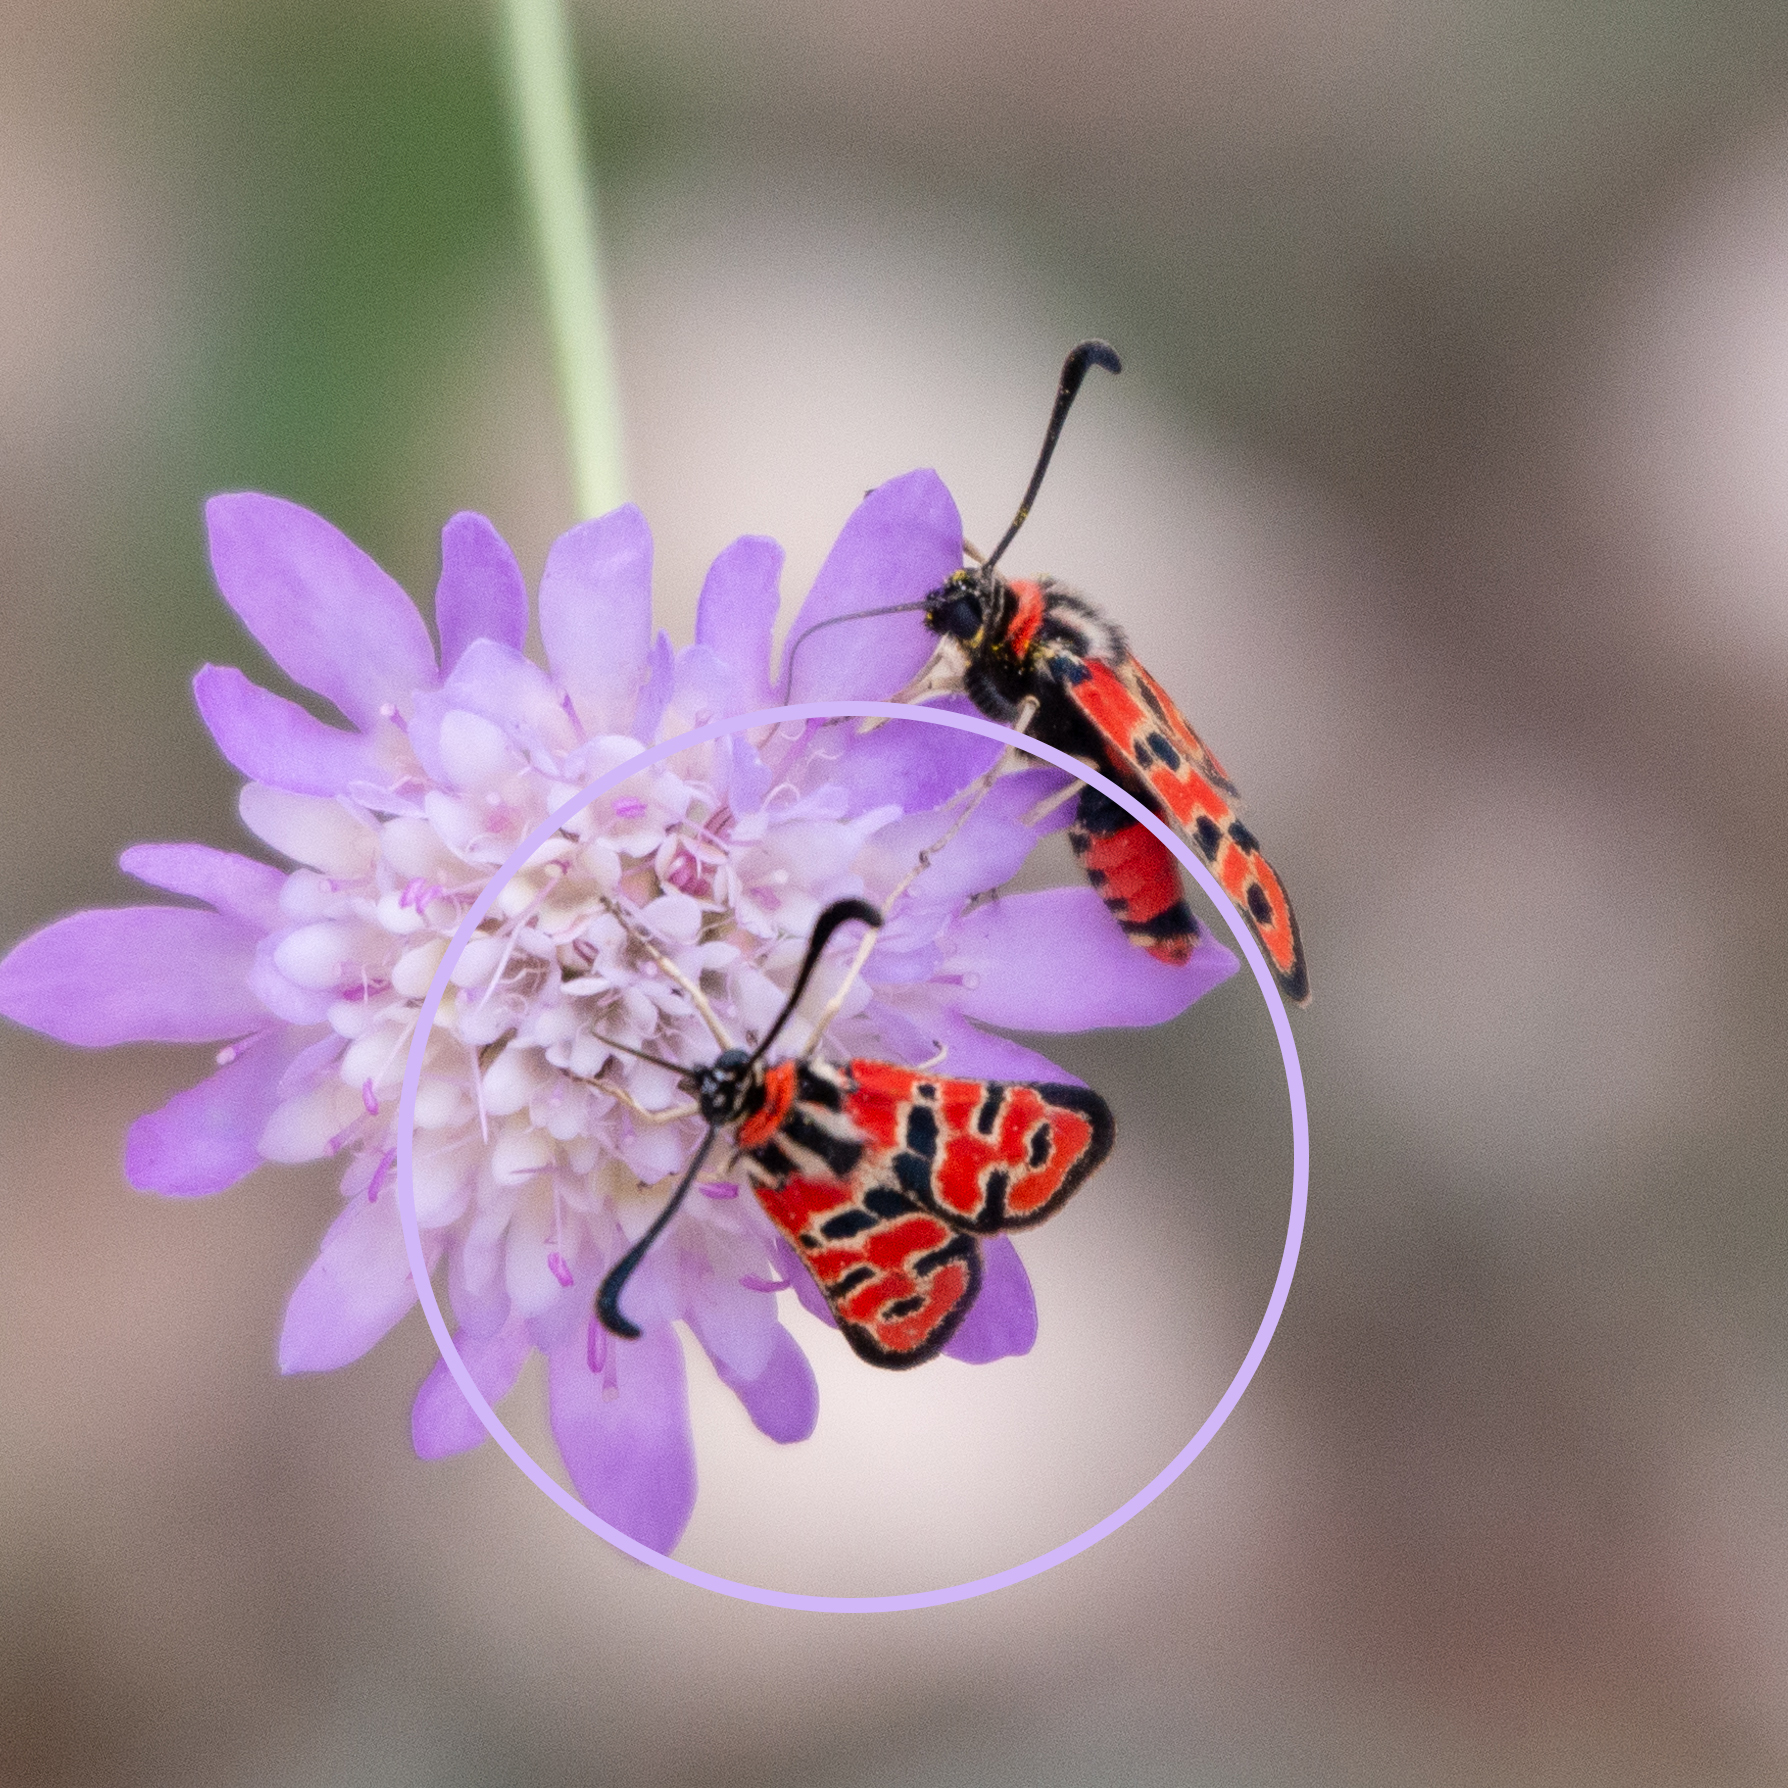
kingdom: Animalia
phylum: Arthropoda
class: Insecta
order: Lepidoptera
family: Zygaenidae
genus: Zygaena
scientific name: Zygaena fausta
